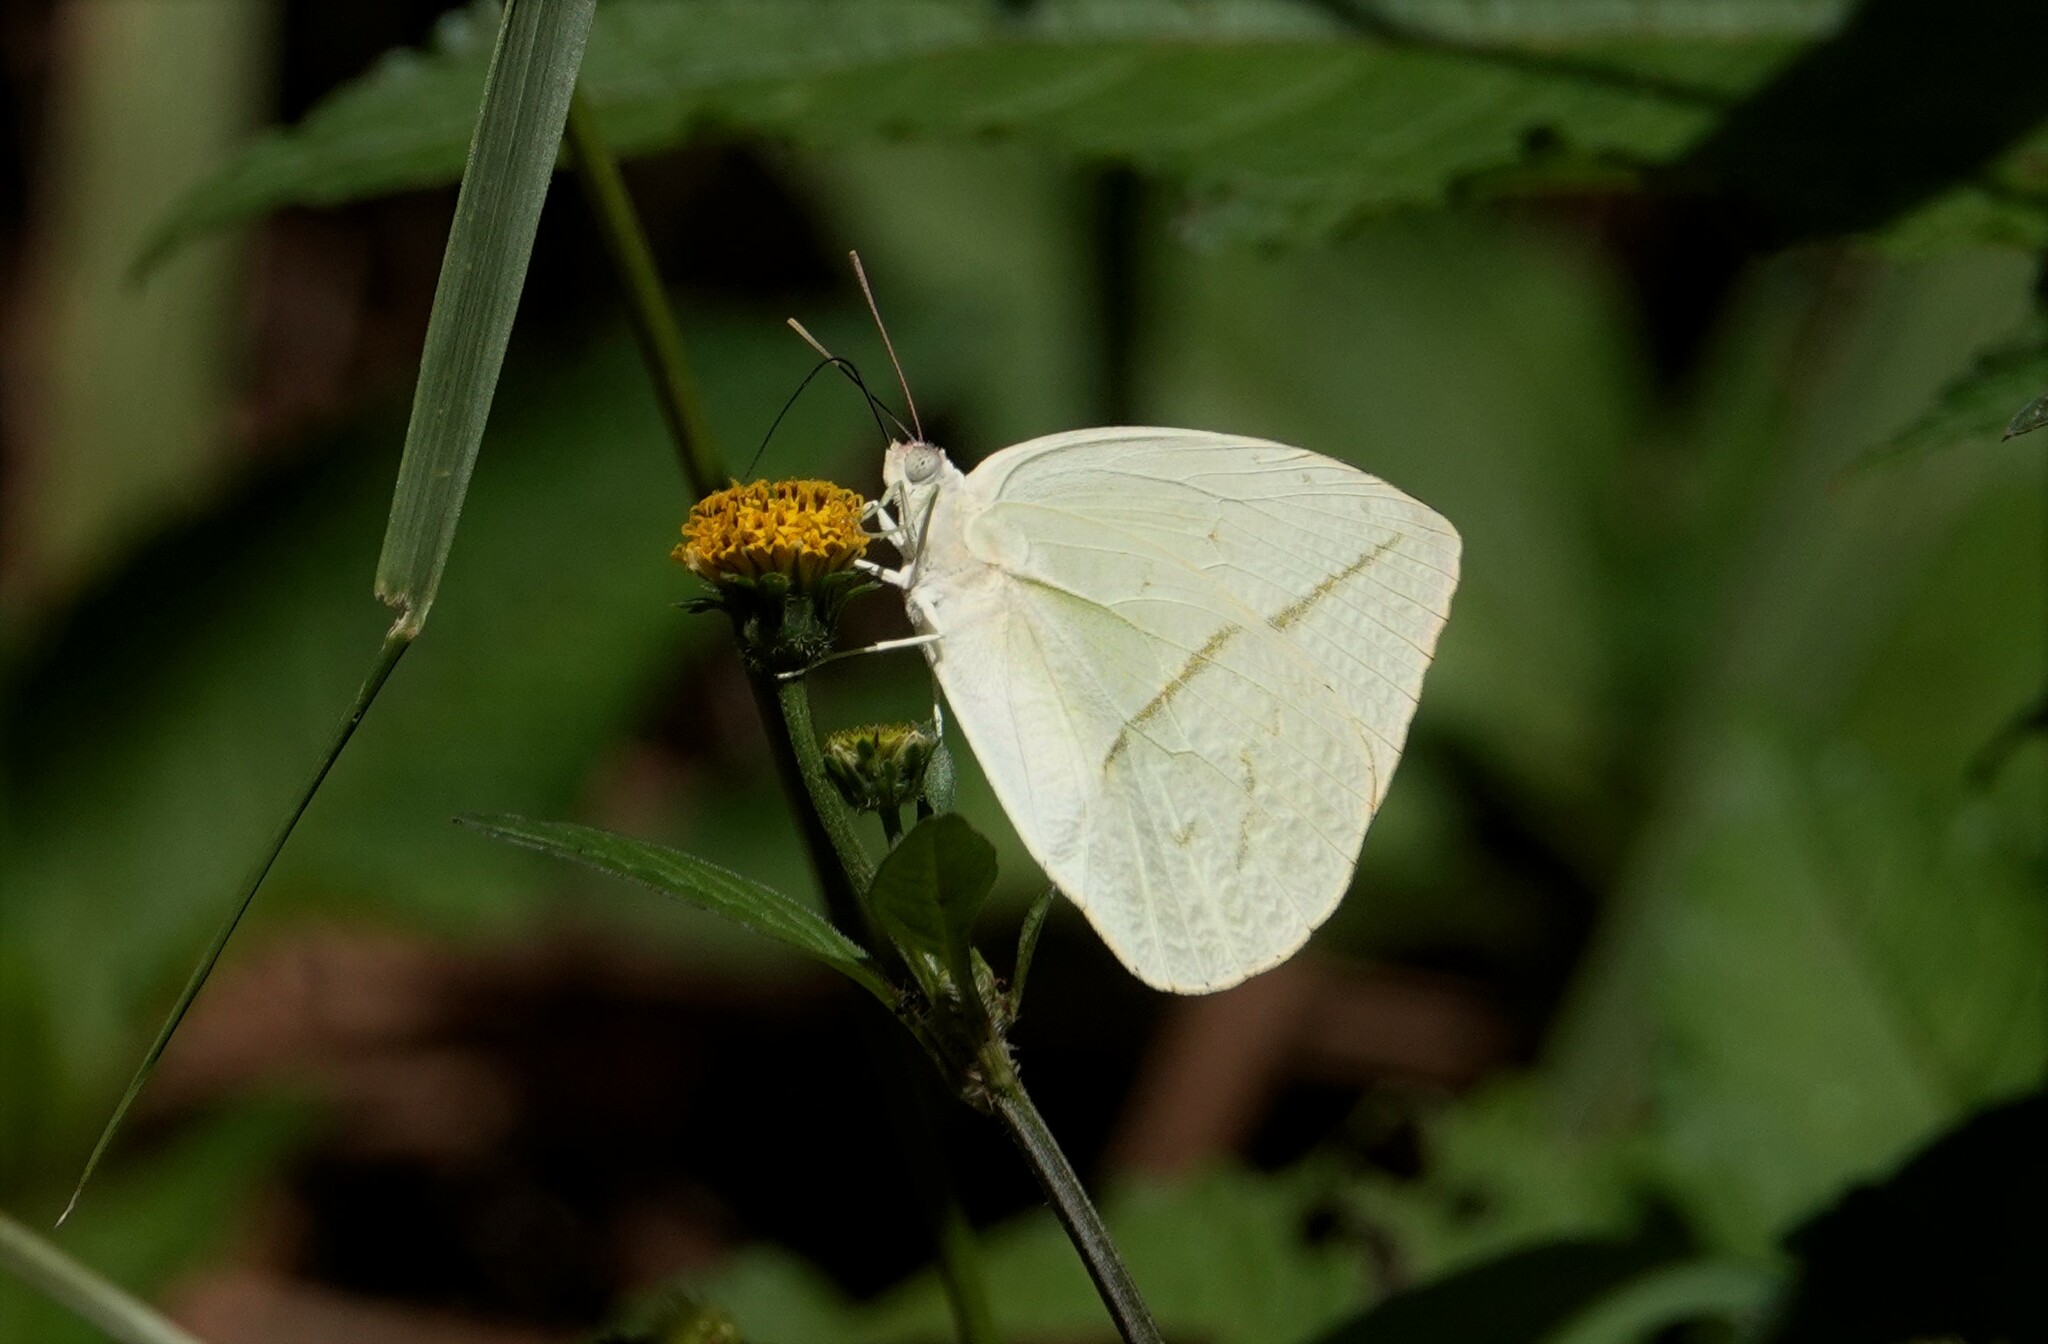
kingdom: Animalia
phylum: Arthropoda
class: Insecta
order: Lepidoptera
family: Pieridae
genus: Rhabdodryas
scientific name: Rhabdodryas trite
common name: Straight-lined sulphur
